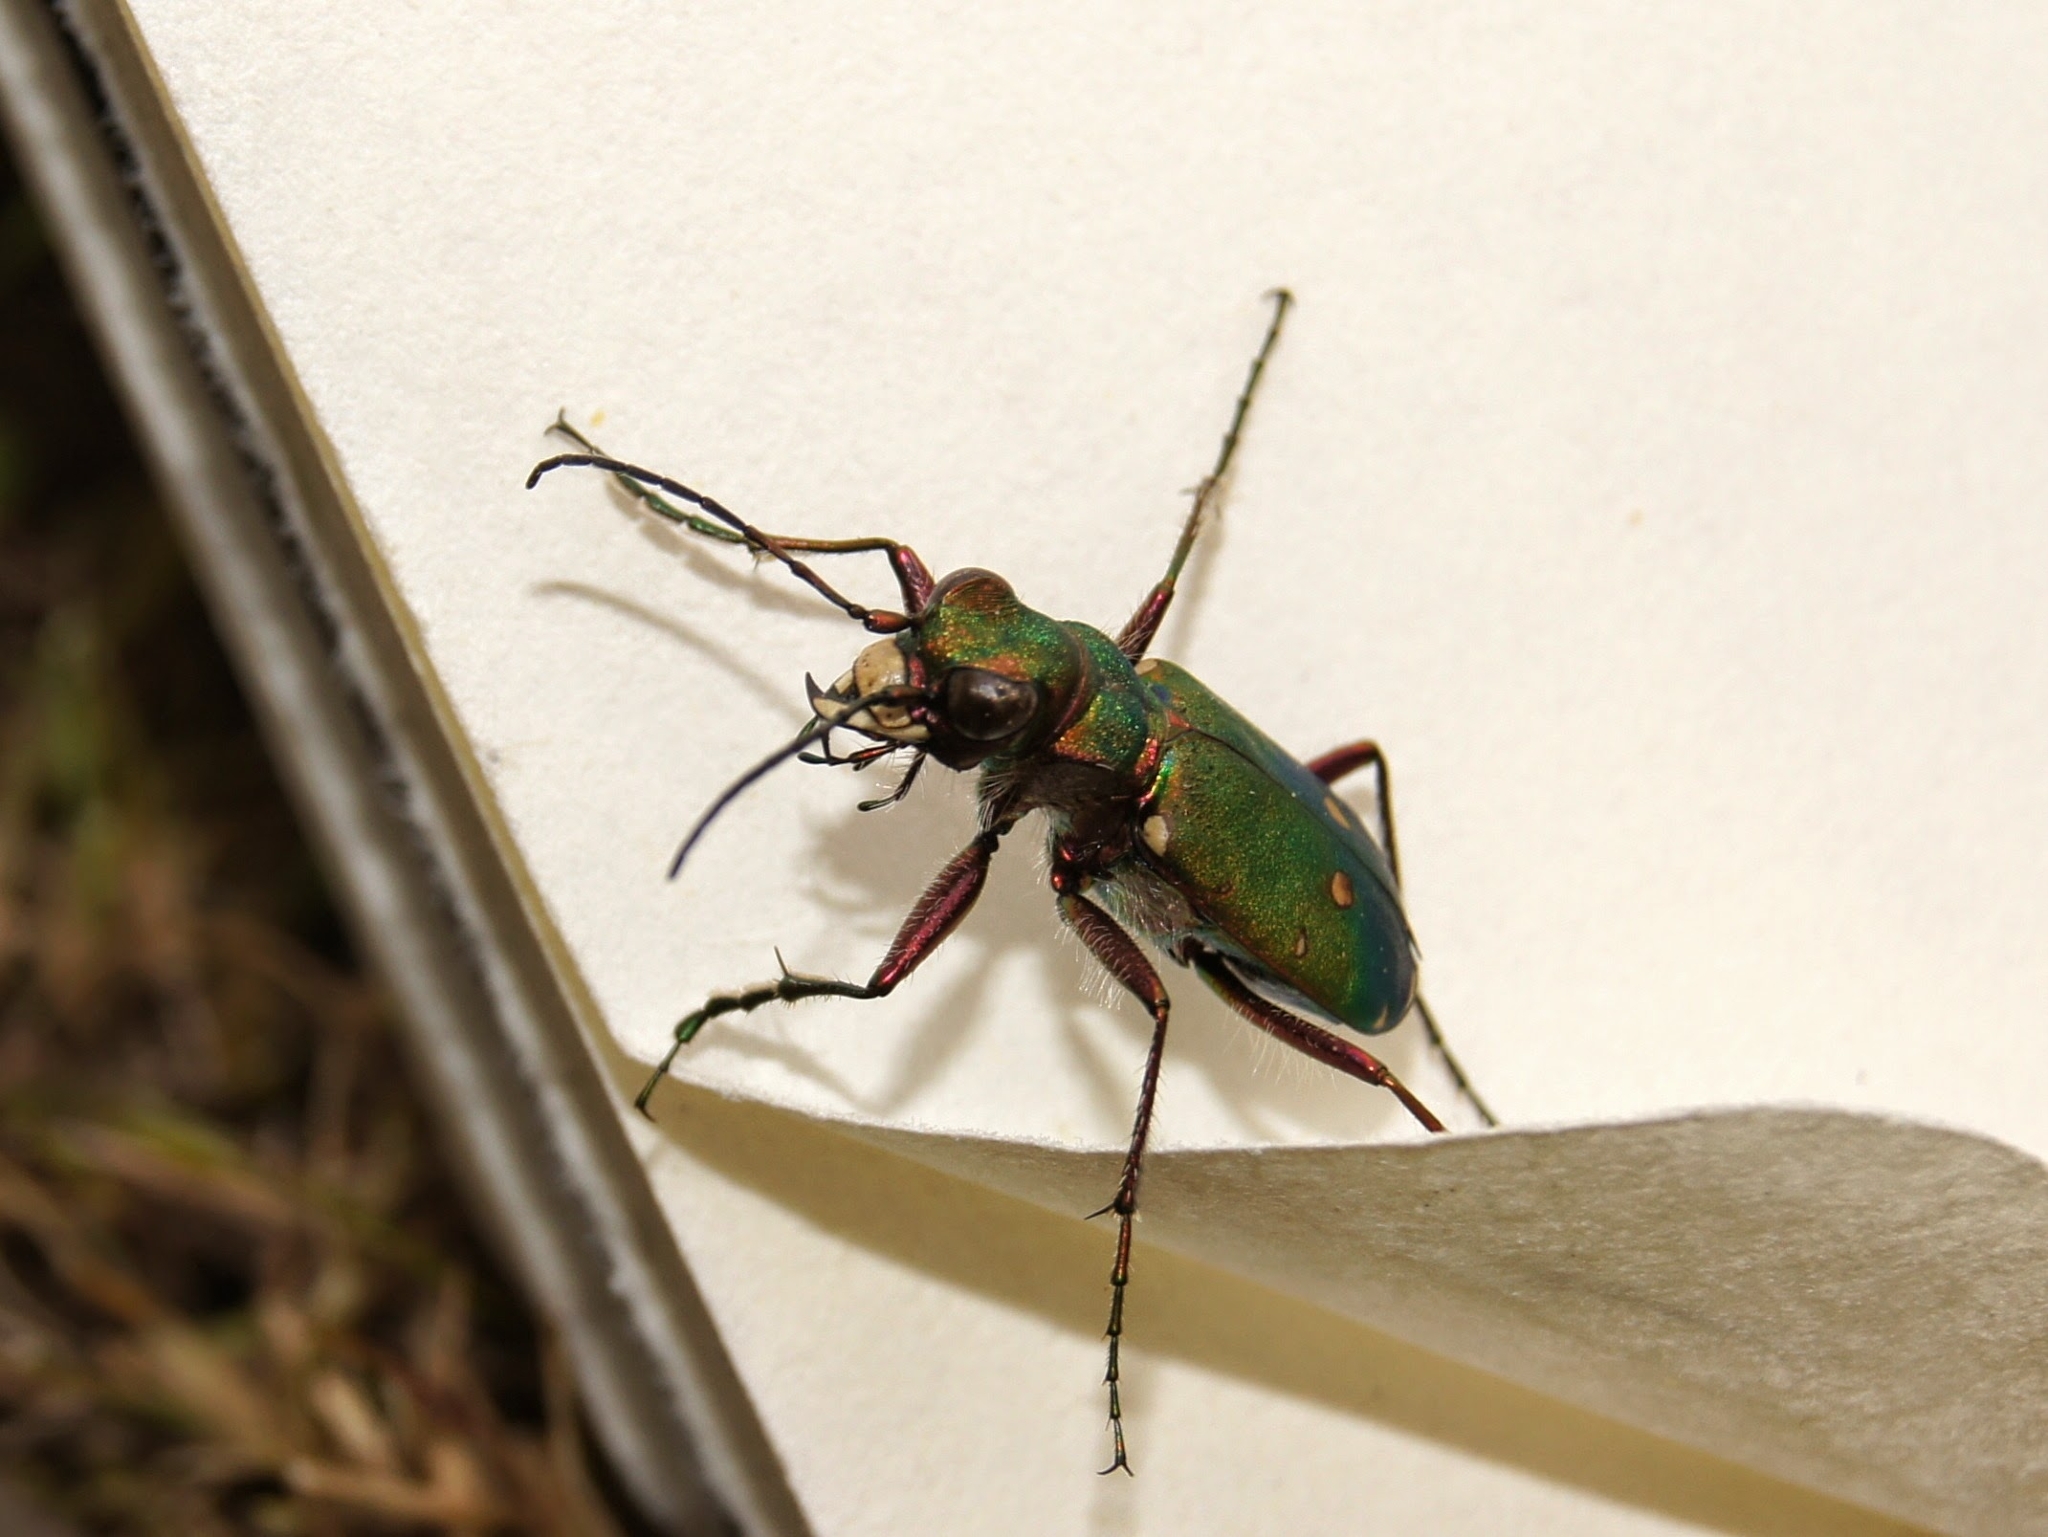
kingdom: Animalia
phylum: Arthropoda
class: Insecta
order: Coleoptera
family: Carabidae
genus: Cicindela
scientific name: Cicindela campestris
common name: Common tiger beetle
